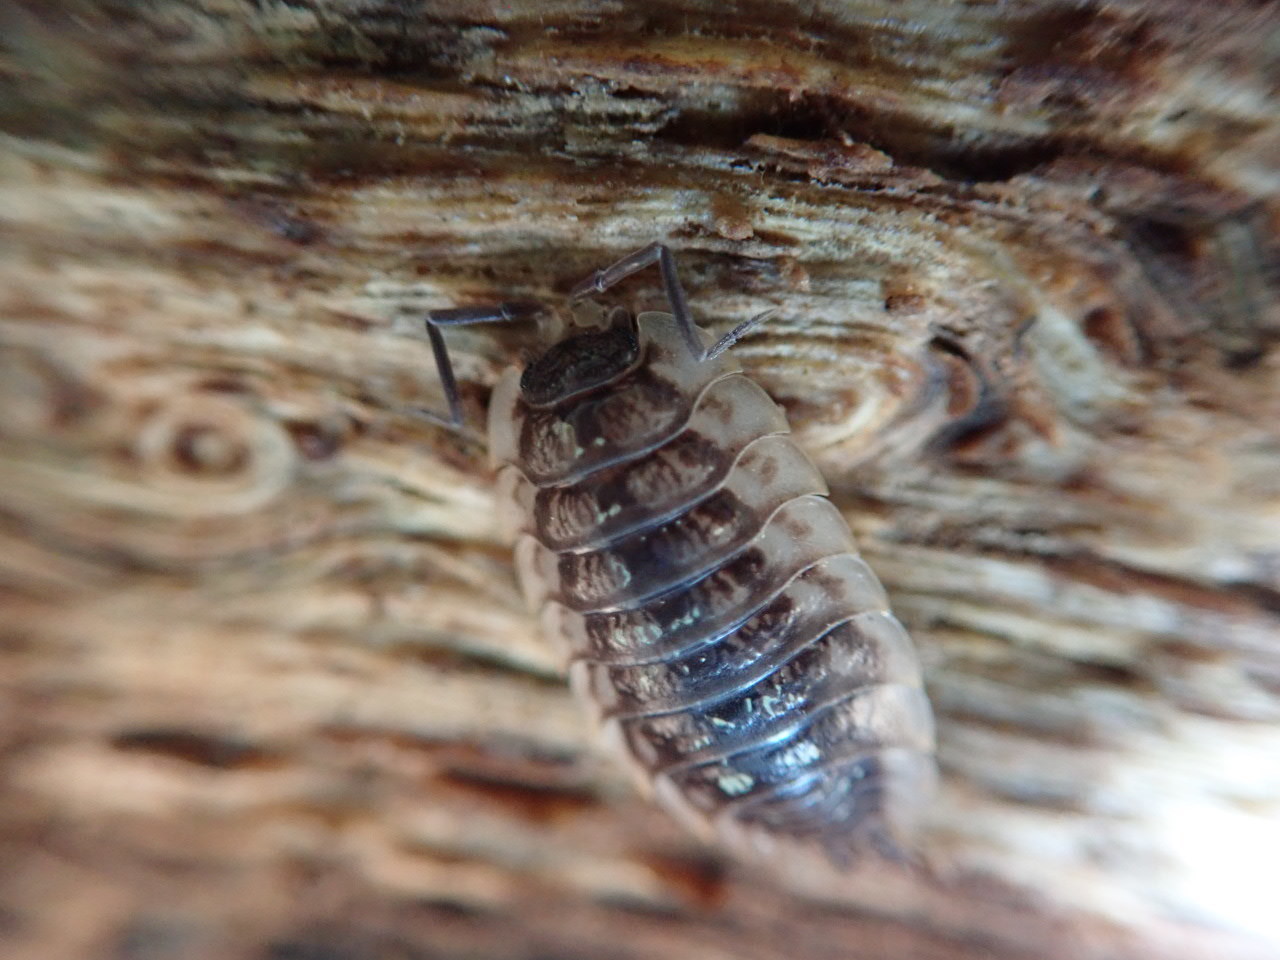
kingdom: Animalia
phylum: Arthropoda
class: Malacostraca
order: Isopoda
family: Oniscidae
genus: Oniscus
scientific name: Oniscus asellus
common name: Common shiny woodlouse
